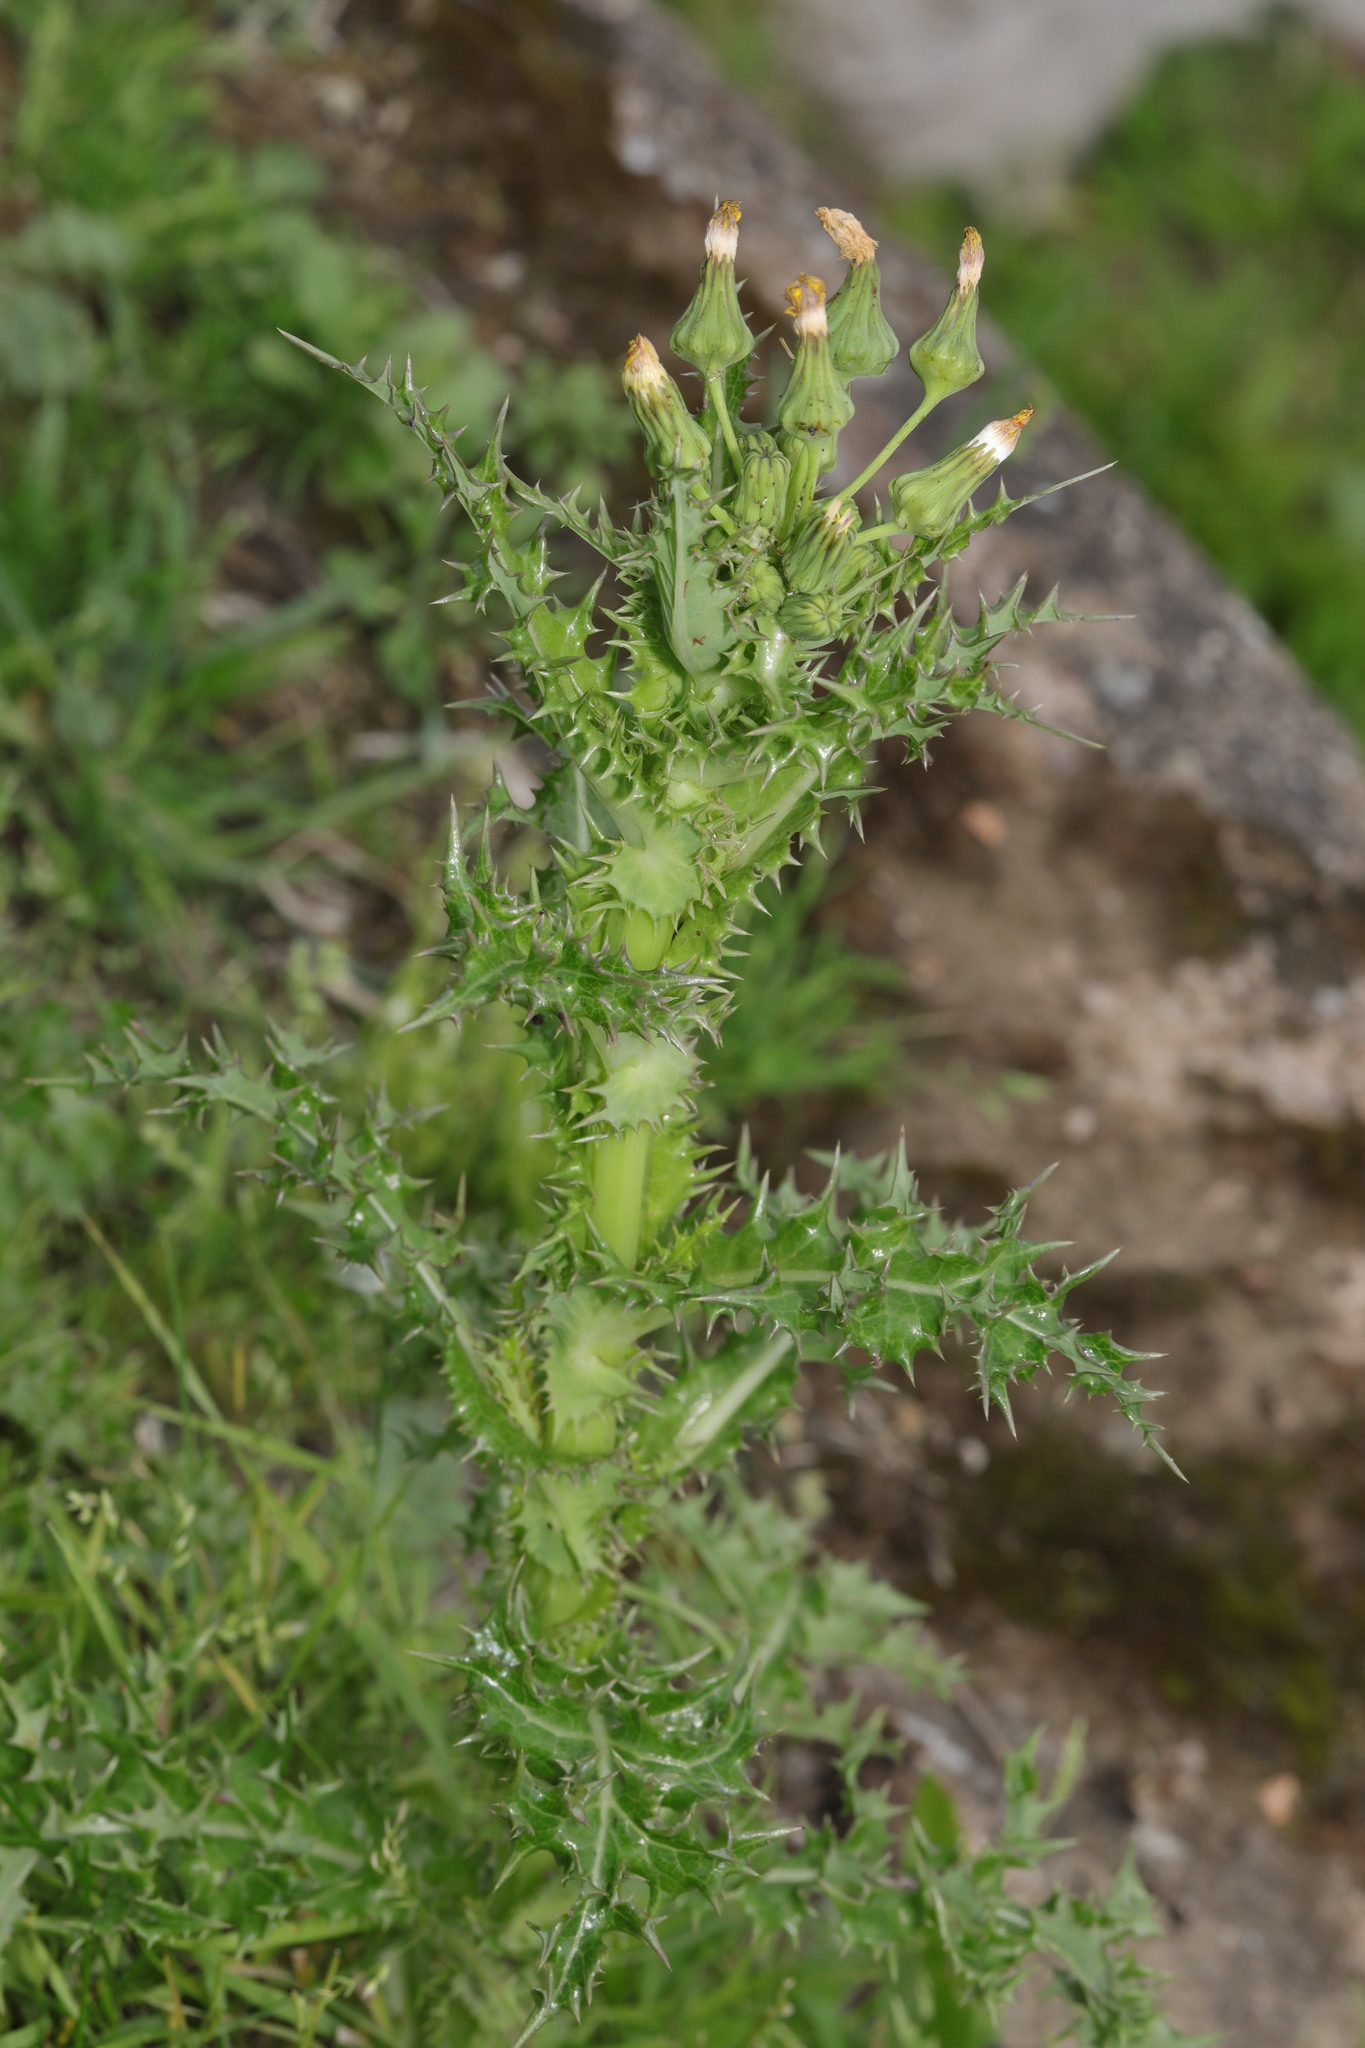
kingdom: Plantae
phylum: Tracheophyta
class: Magnoliopsida
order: Asterales
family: Asteraceae
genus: Sonchus
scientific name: Sonchus asper
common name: Prickly sow-thistle
